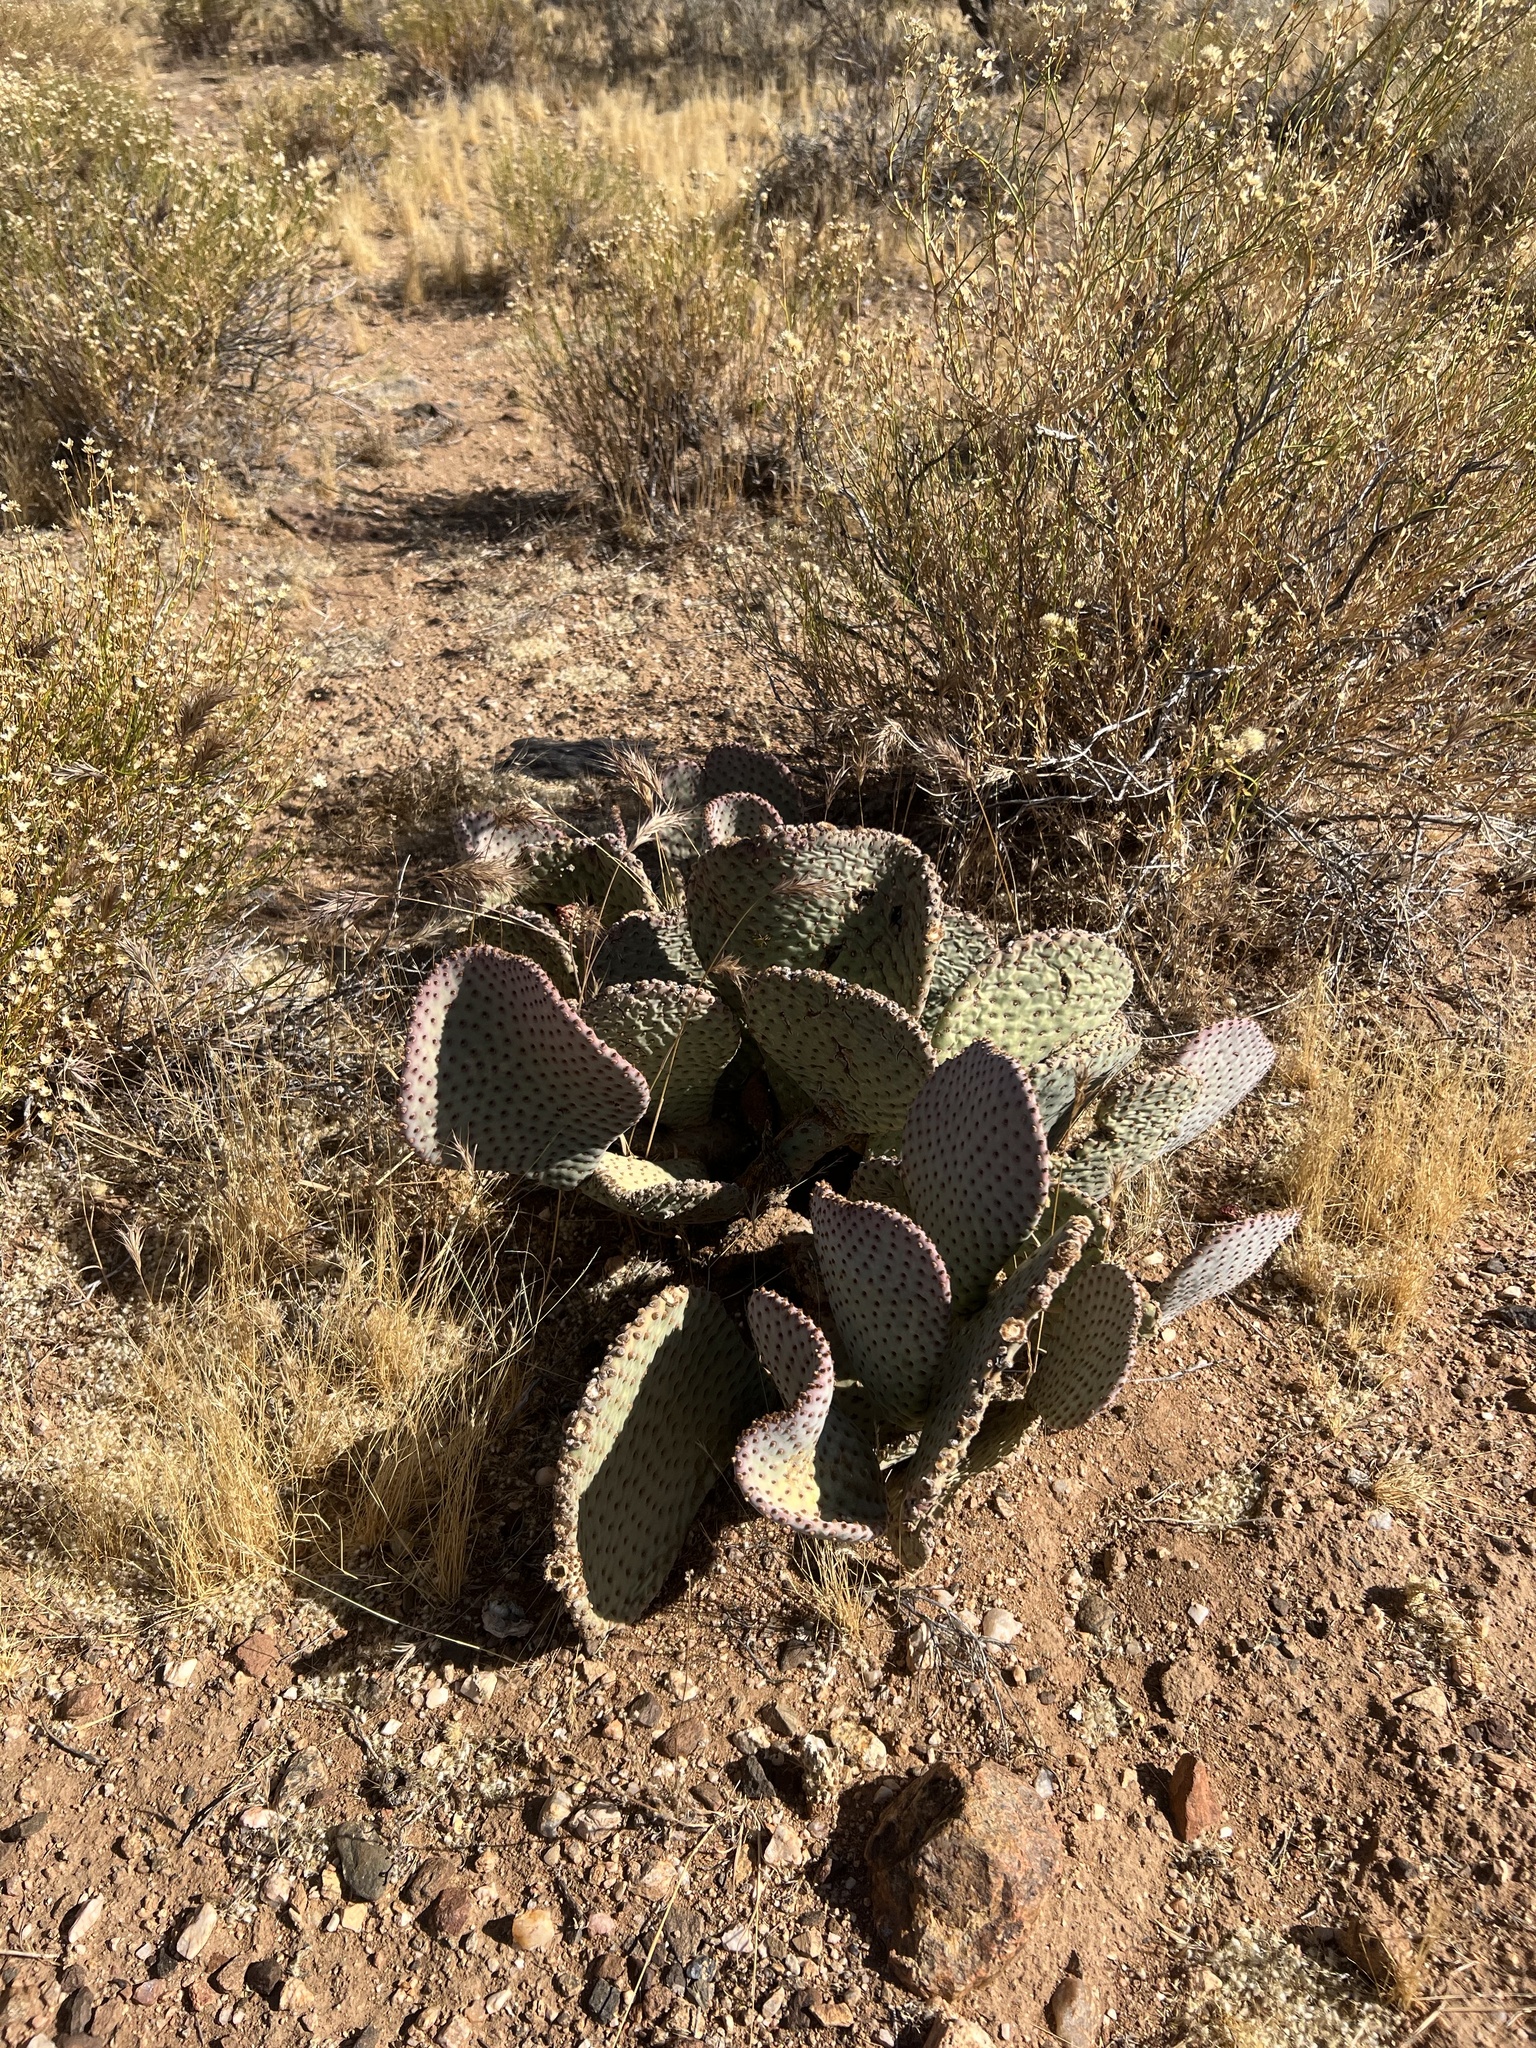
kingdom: Plantae
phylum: Tracheophyta
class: Magnoliopsida
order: Caryophyllales
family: Cactaceae
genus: Opuntia
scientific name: Opuntia basilaris
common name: Beavertail prickly-pear
